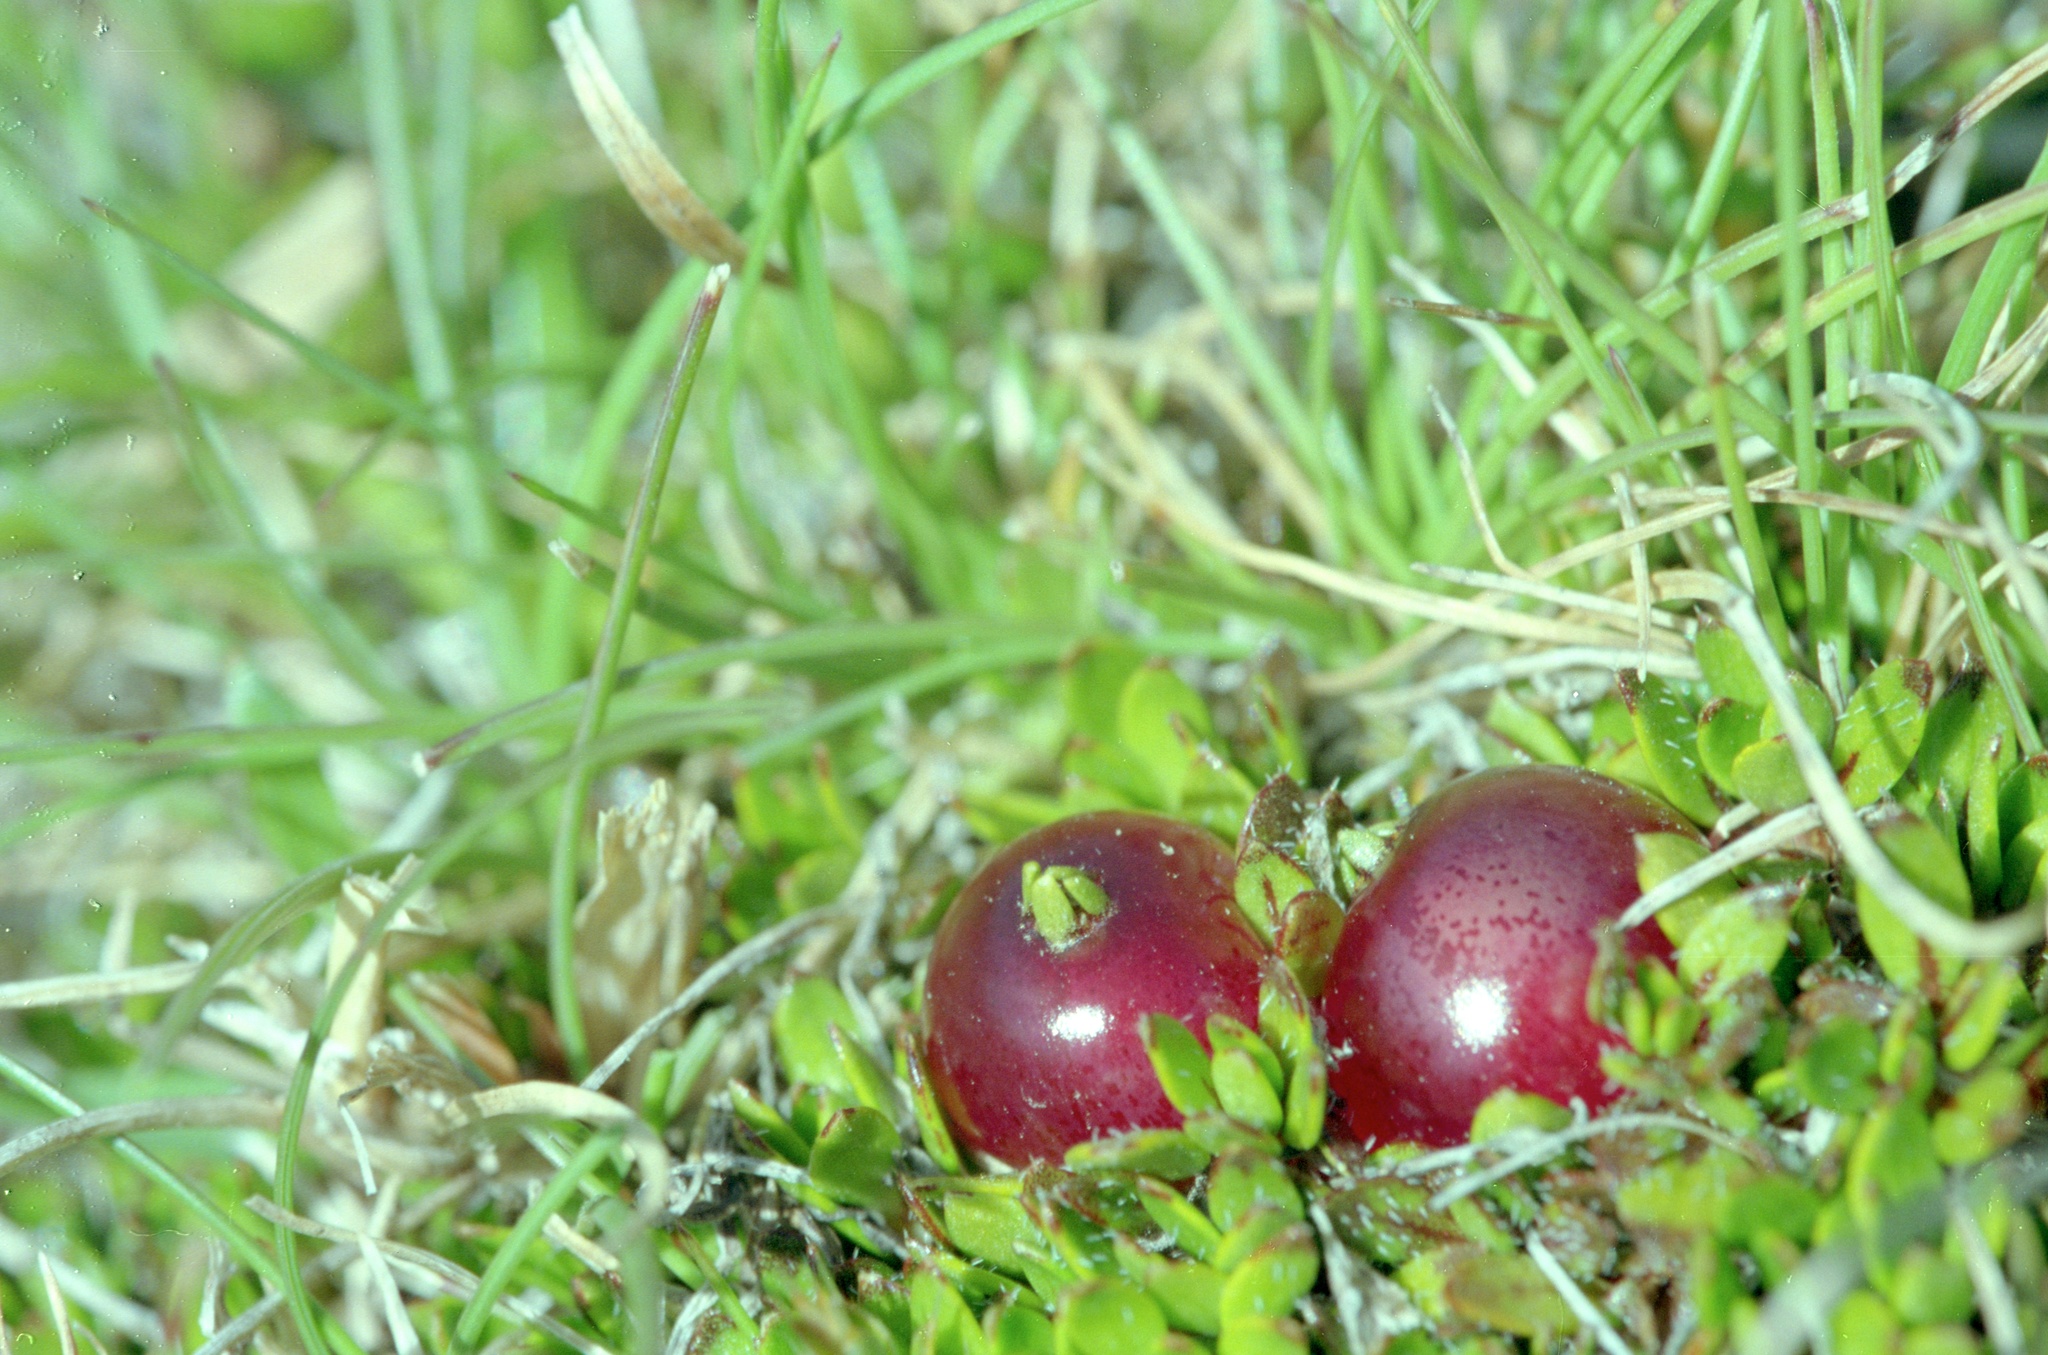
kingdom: Plantae
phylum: Tracheophyta
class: Magnoliopsida
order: Gentianales
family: Rubiaceae
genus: Coprosma
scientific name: Coprosma atropurpurea
